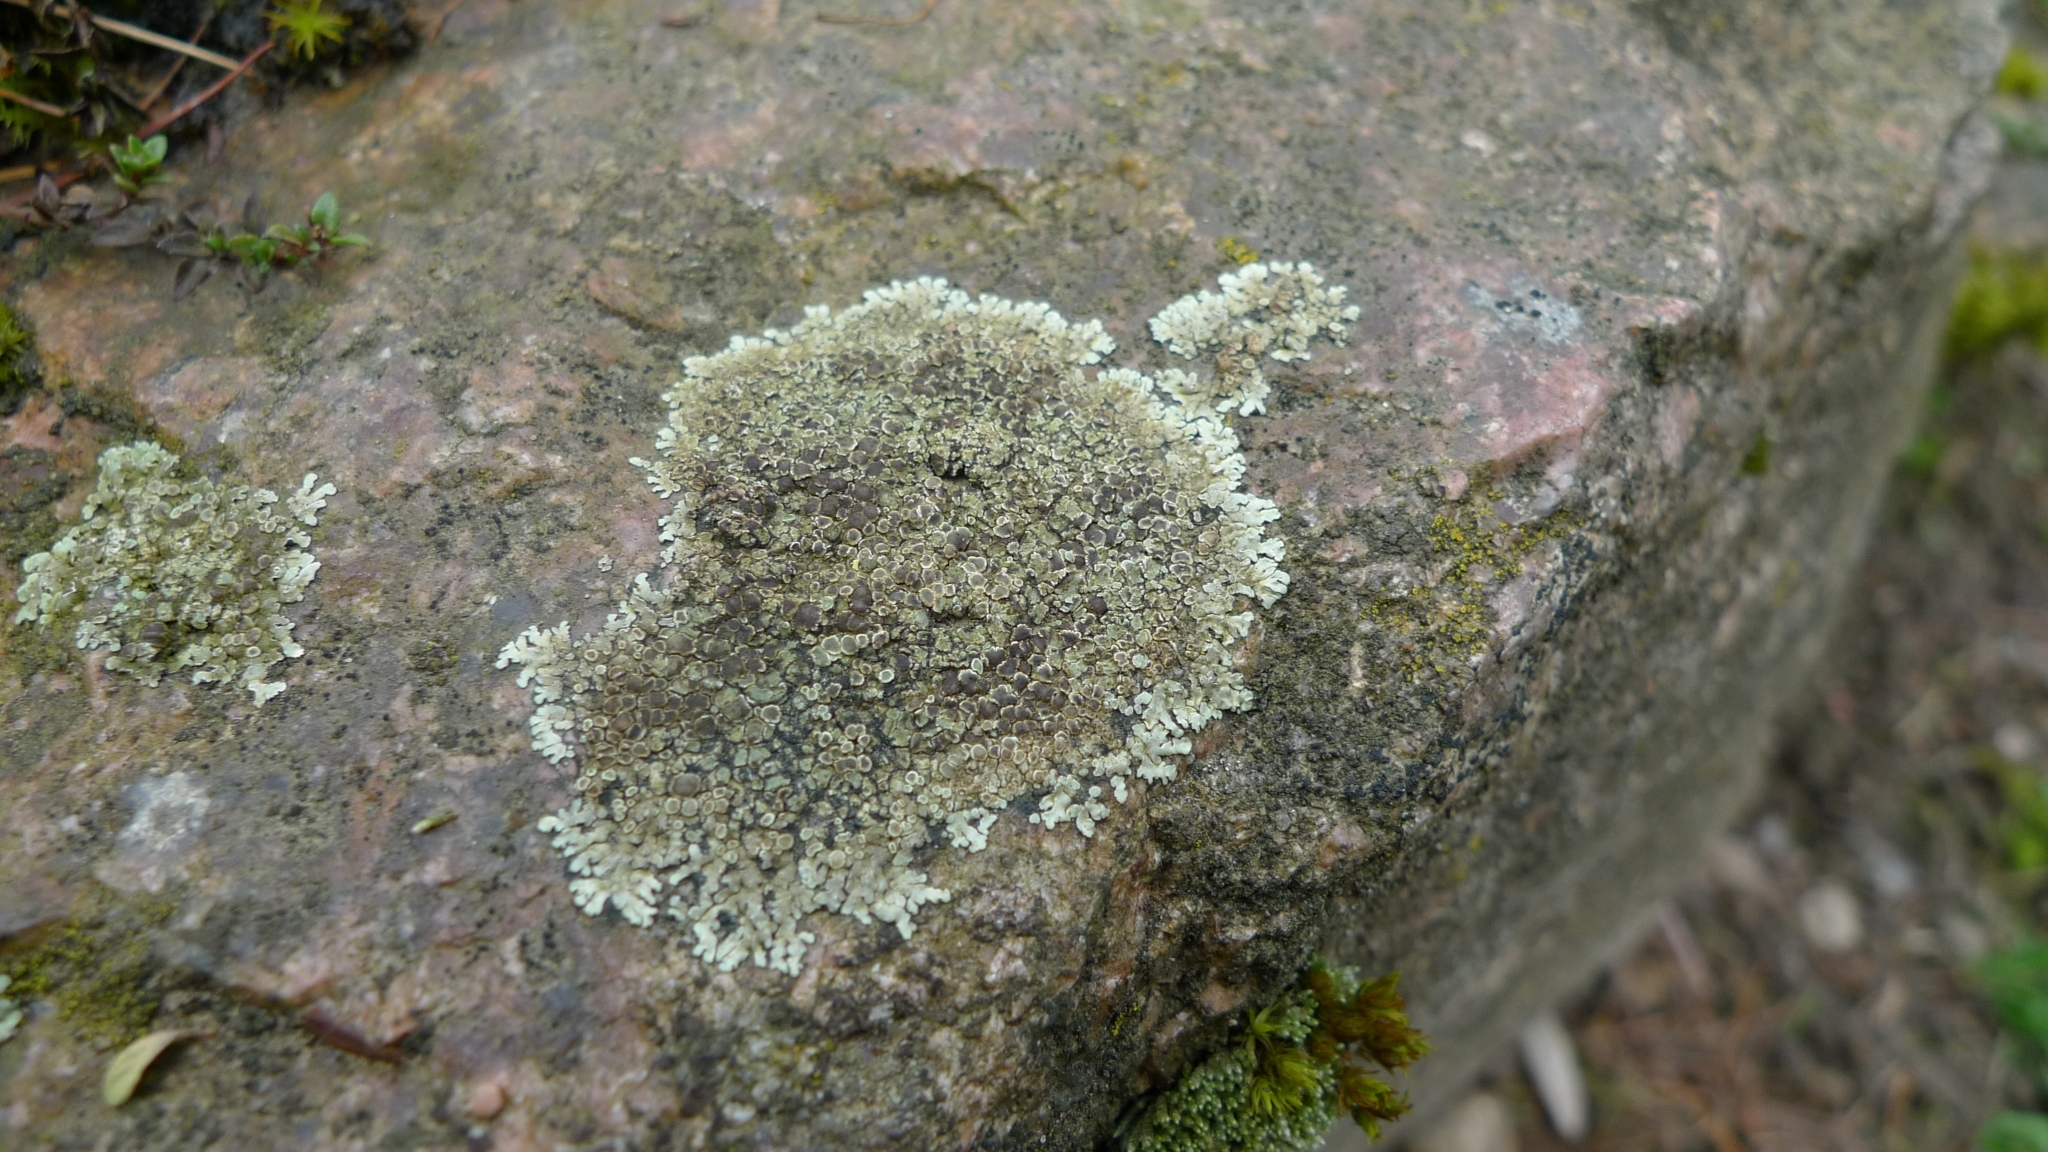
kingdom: Fungi
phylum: Ascomycota
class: Lecanoromycetes
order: Lecanorales
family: Lecanoraceae
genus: Protoparmeliopsis
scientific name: Protoparmeliopsis muralis
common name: Stonewall rim lichen
